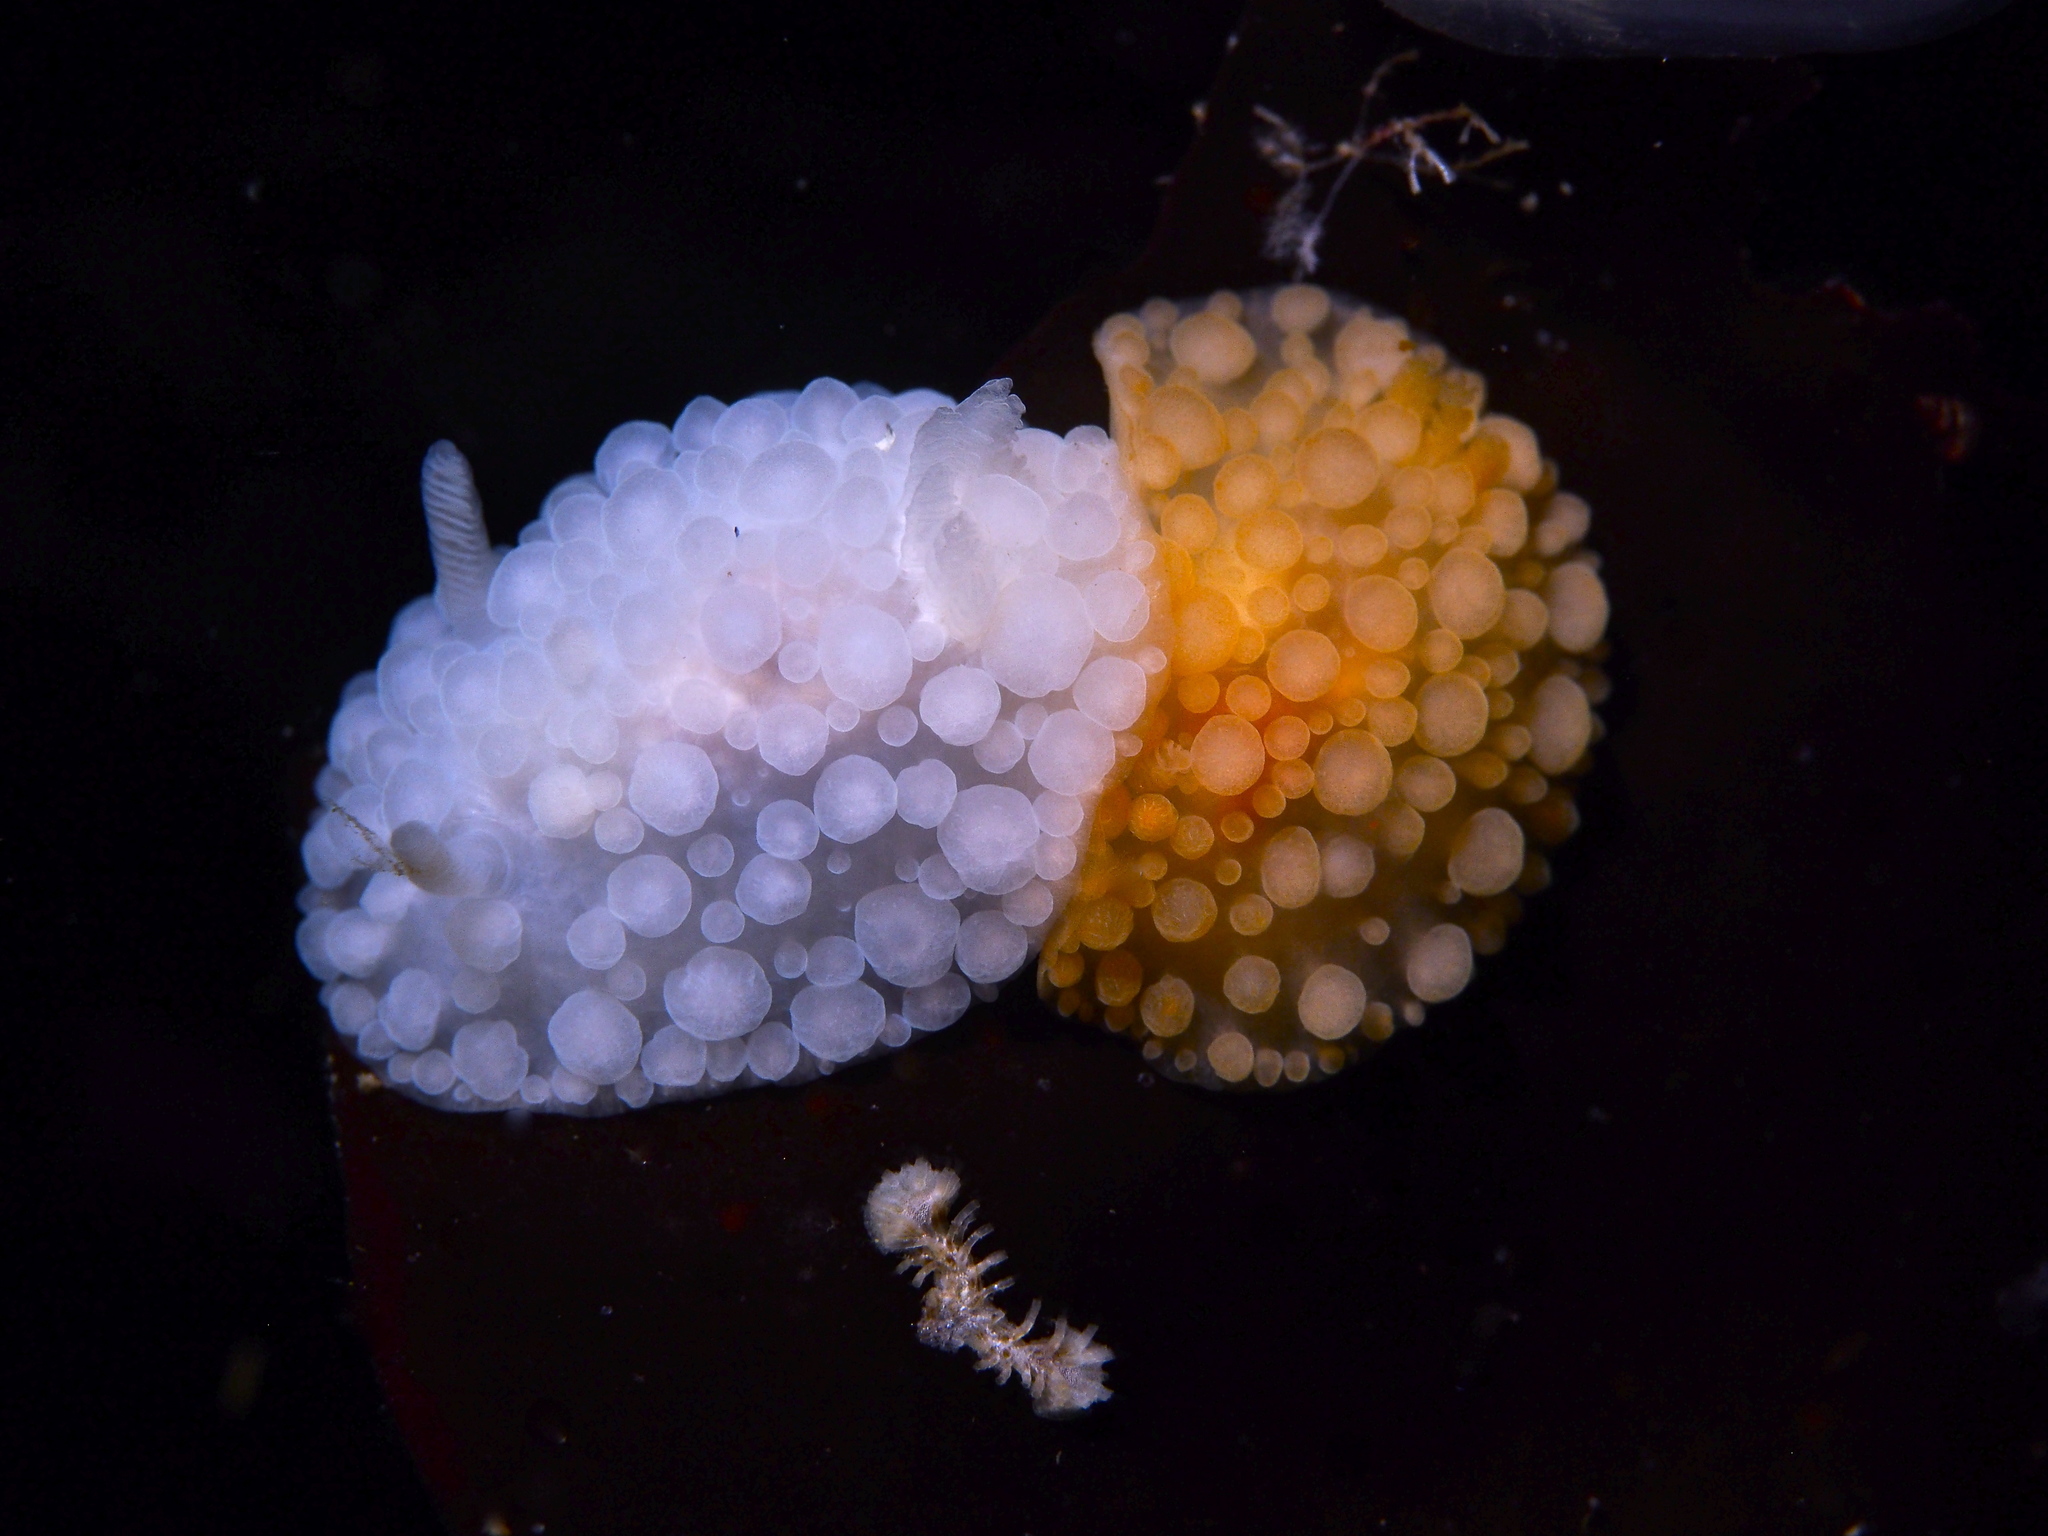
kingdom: Animalia
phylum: Mollusca
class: Gastropoda
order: Nudibranchia
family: Onchidorididae
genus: Adalaria
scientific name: Adalaria loveni
